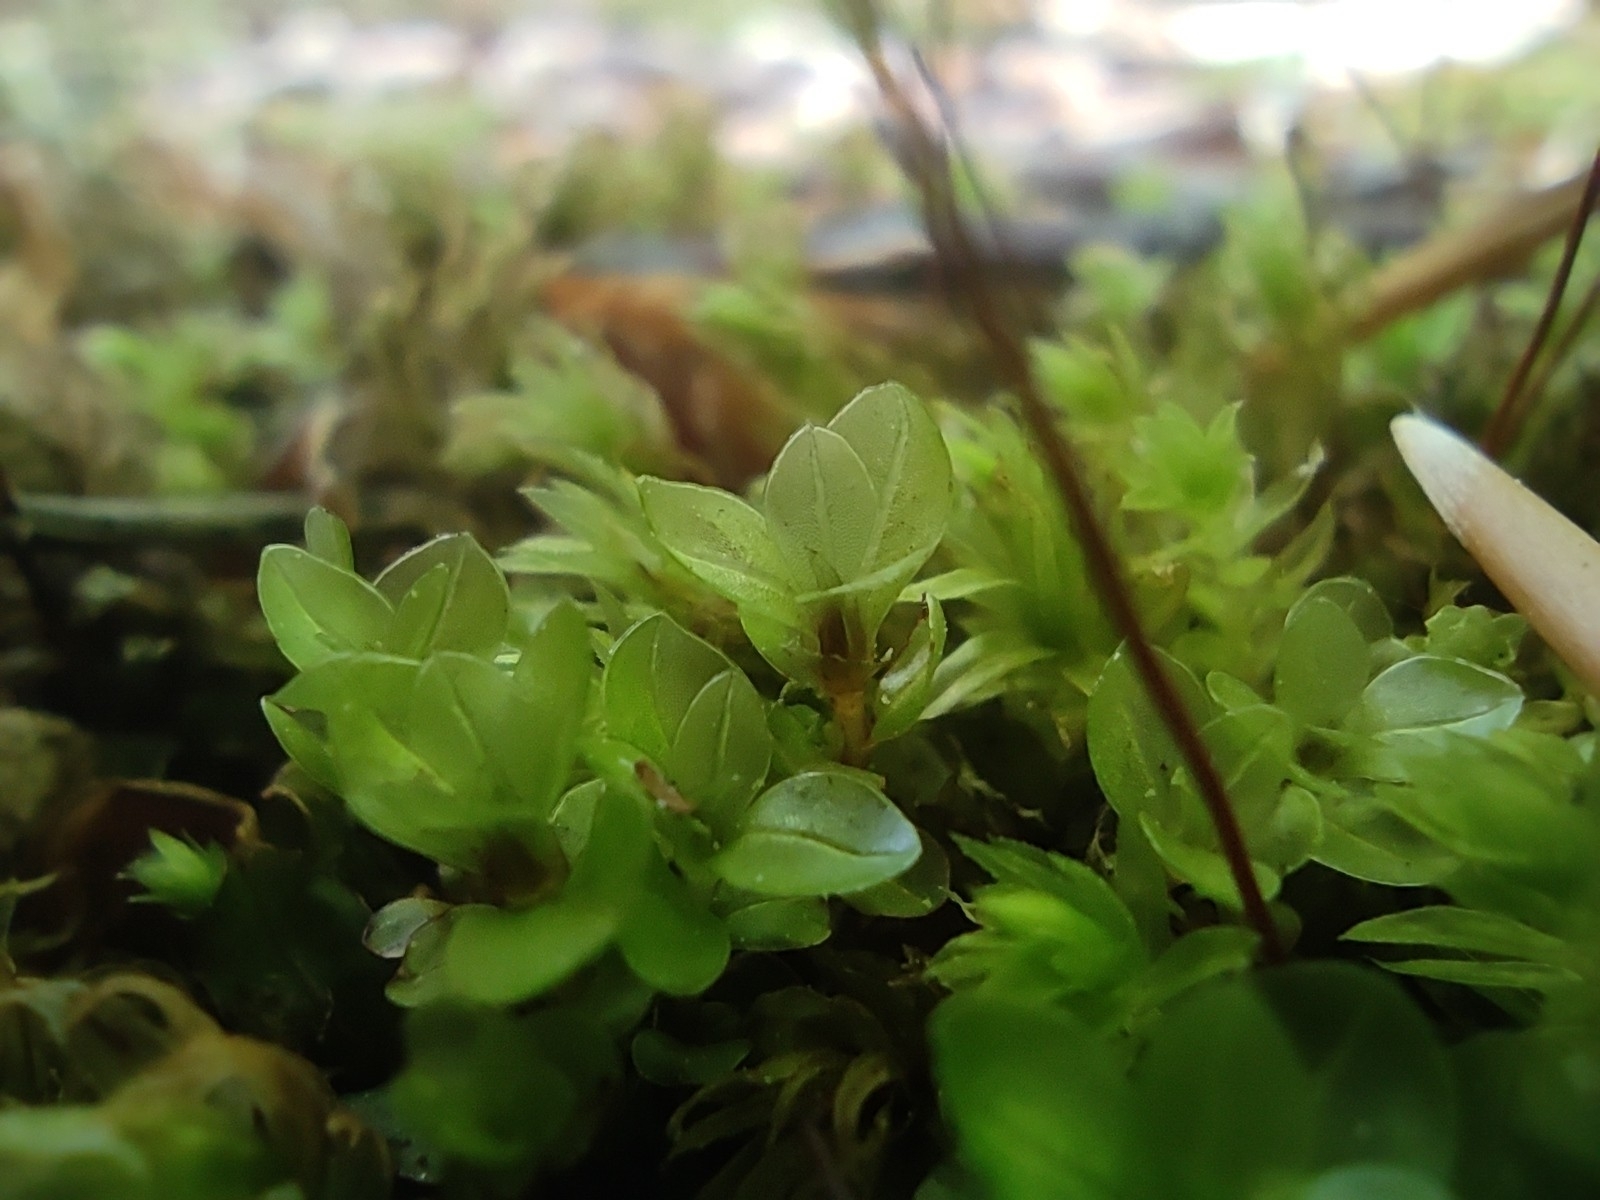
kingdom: Plantae
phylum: Bryophyta
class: Bryopsida
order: Bryales
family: Mniaceae
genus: Rhizomnium
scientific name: Rhizomnium punctatum
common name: Dotted leafy moss
